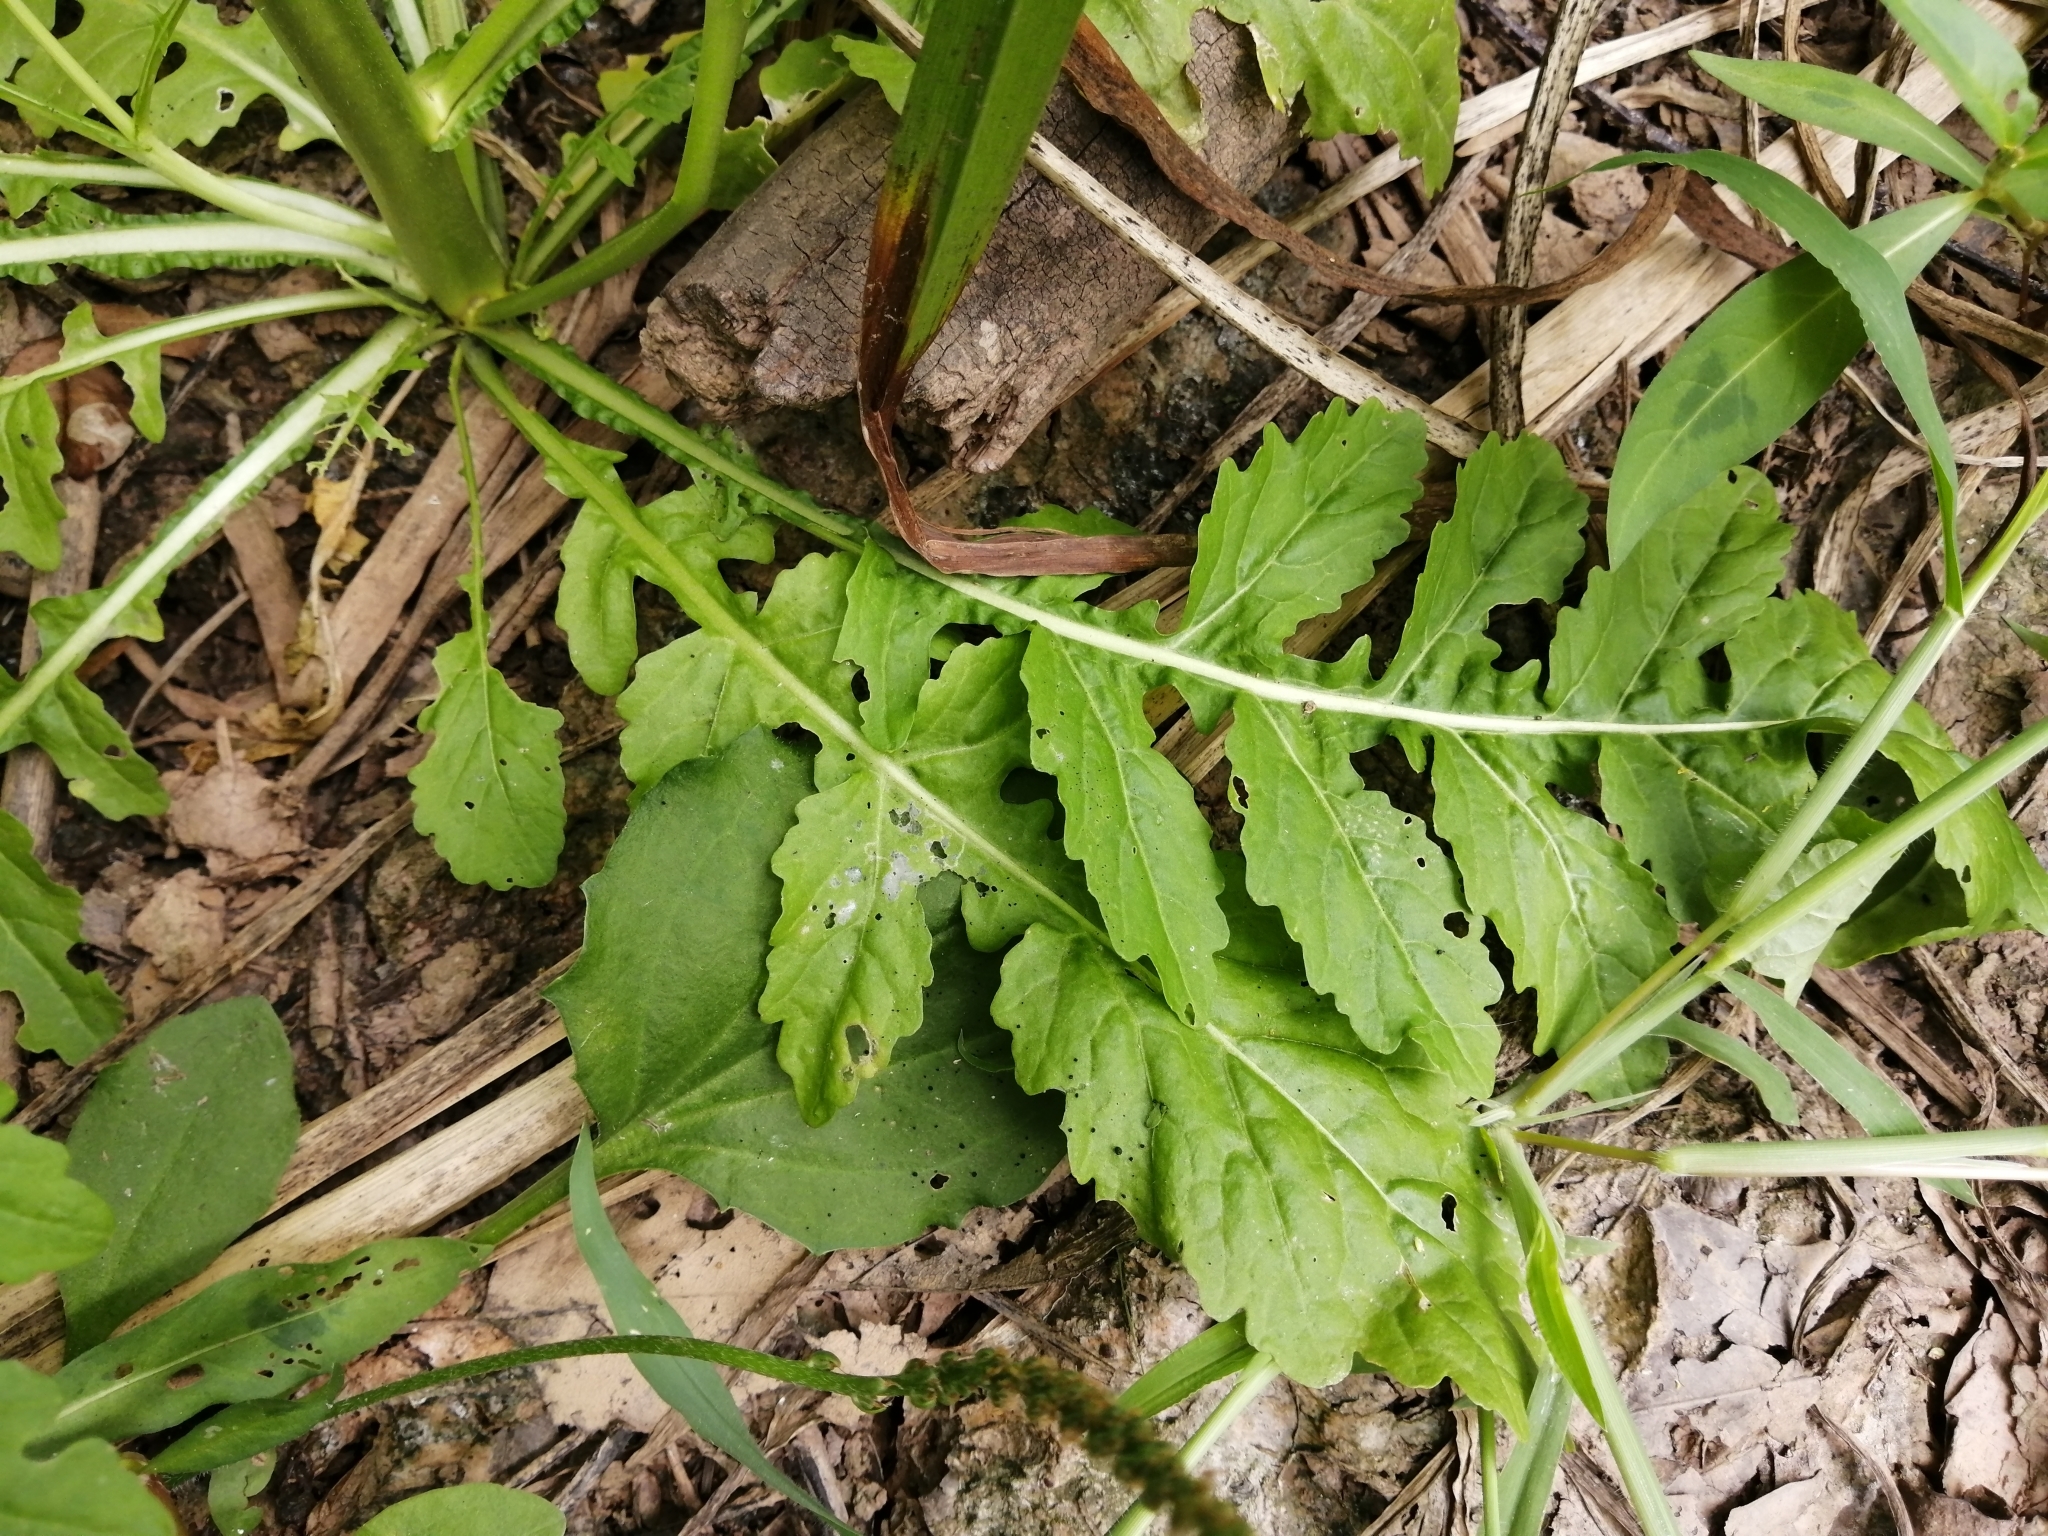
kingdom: Plantae
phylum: Tracheophyta
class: Magnoliopsida
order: Brassicales
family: Brassicaceae
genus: Rorippa
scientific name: Rorippa palustris
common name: Marsh yellow-cress
